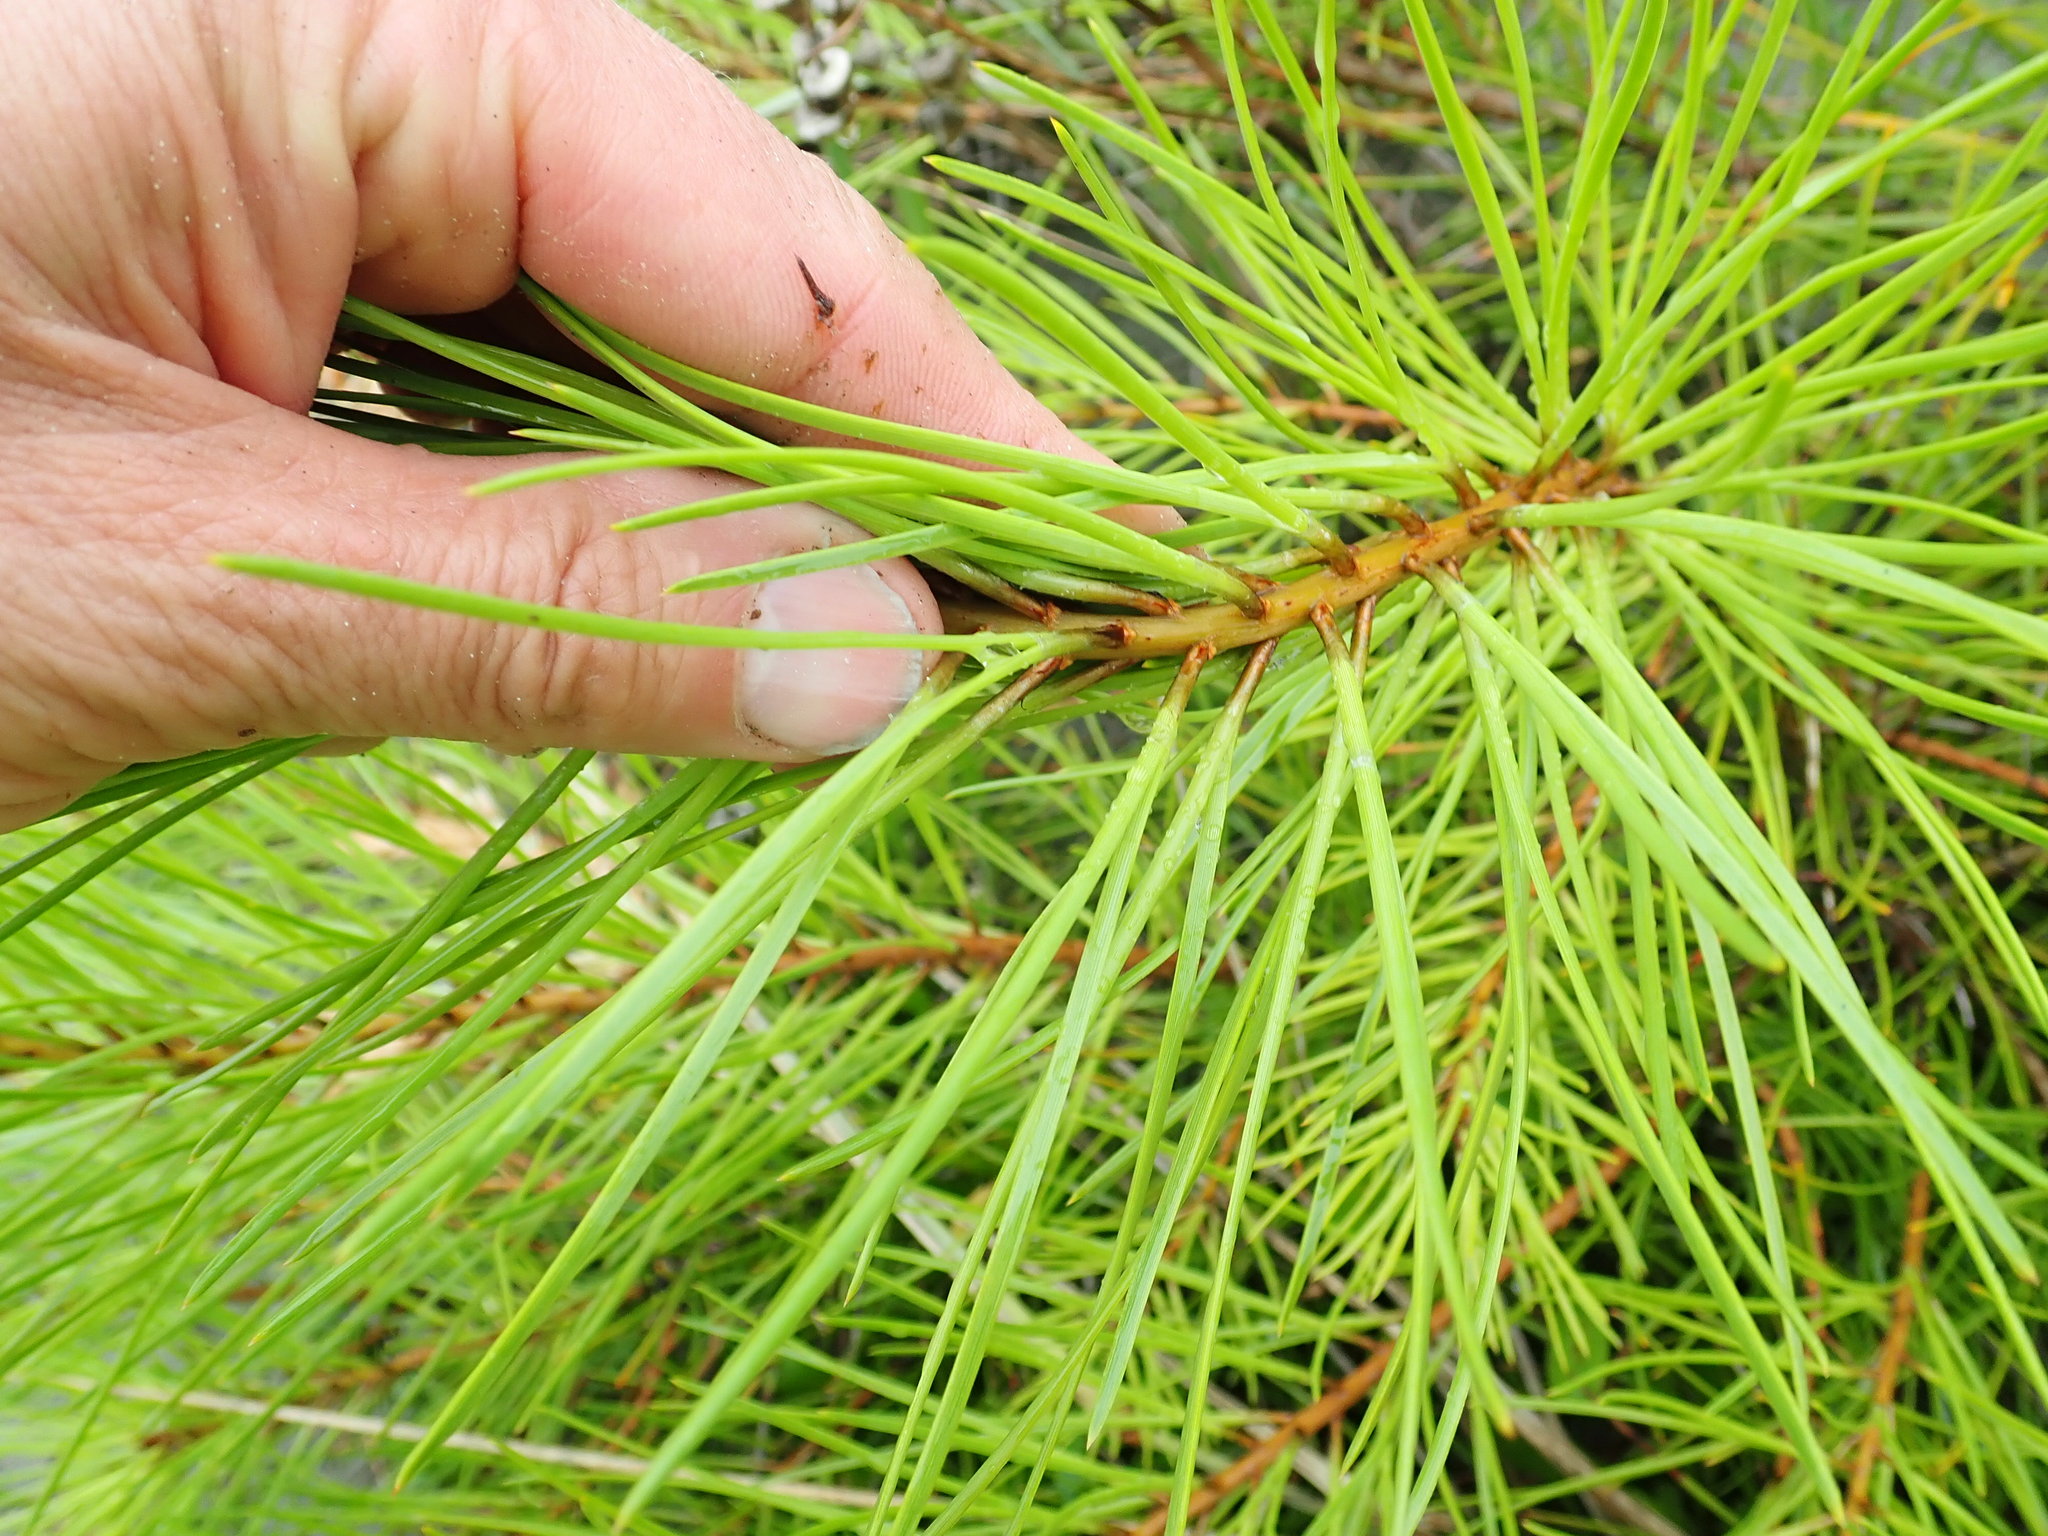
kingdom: Plantae
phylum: Tracheophyta
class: Pinopsida
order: Pinales
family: Pinaceae
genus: Pinus
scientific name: Pinus pinaster
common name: Maritime pine
